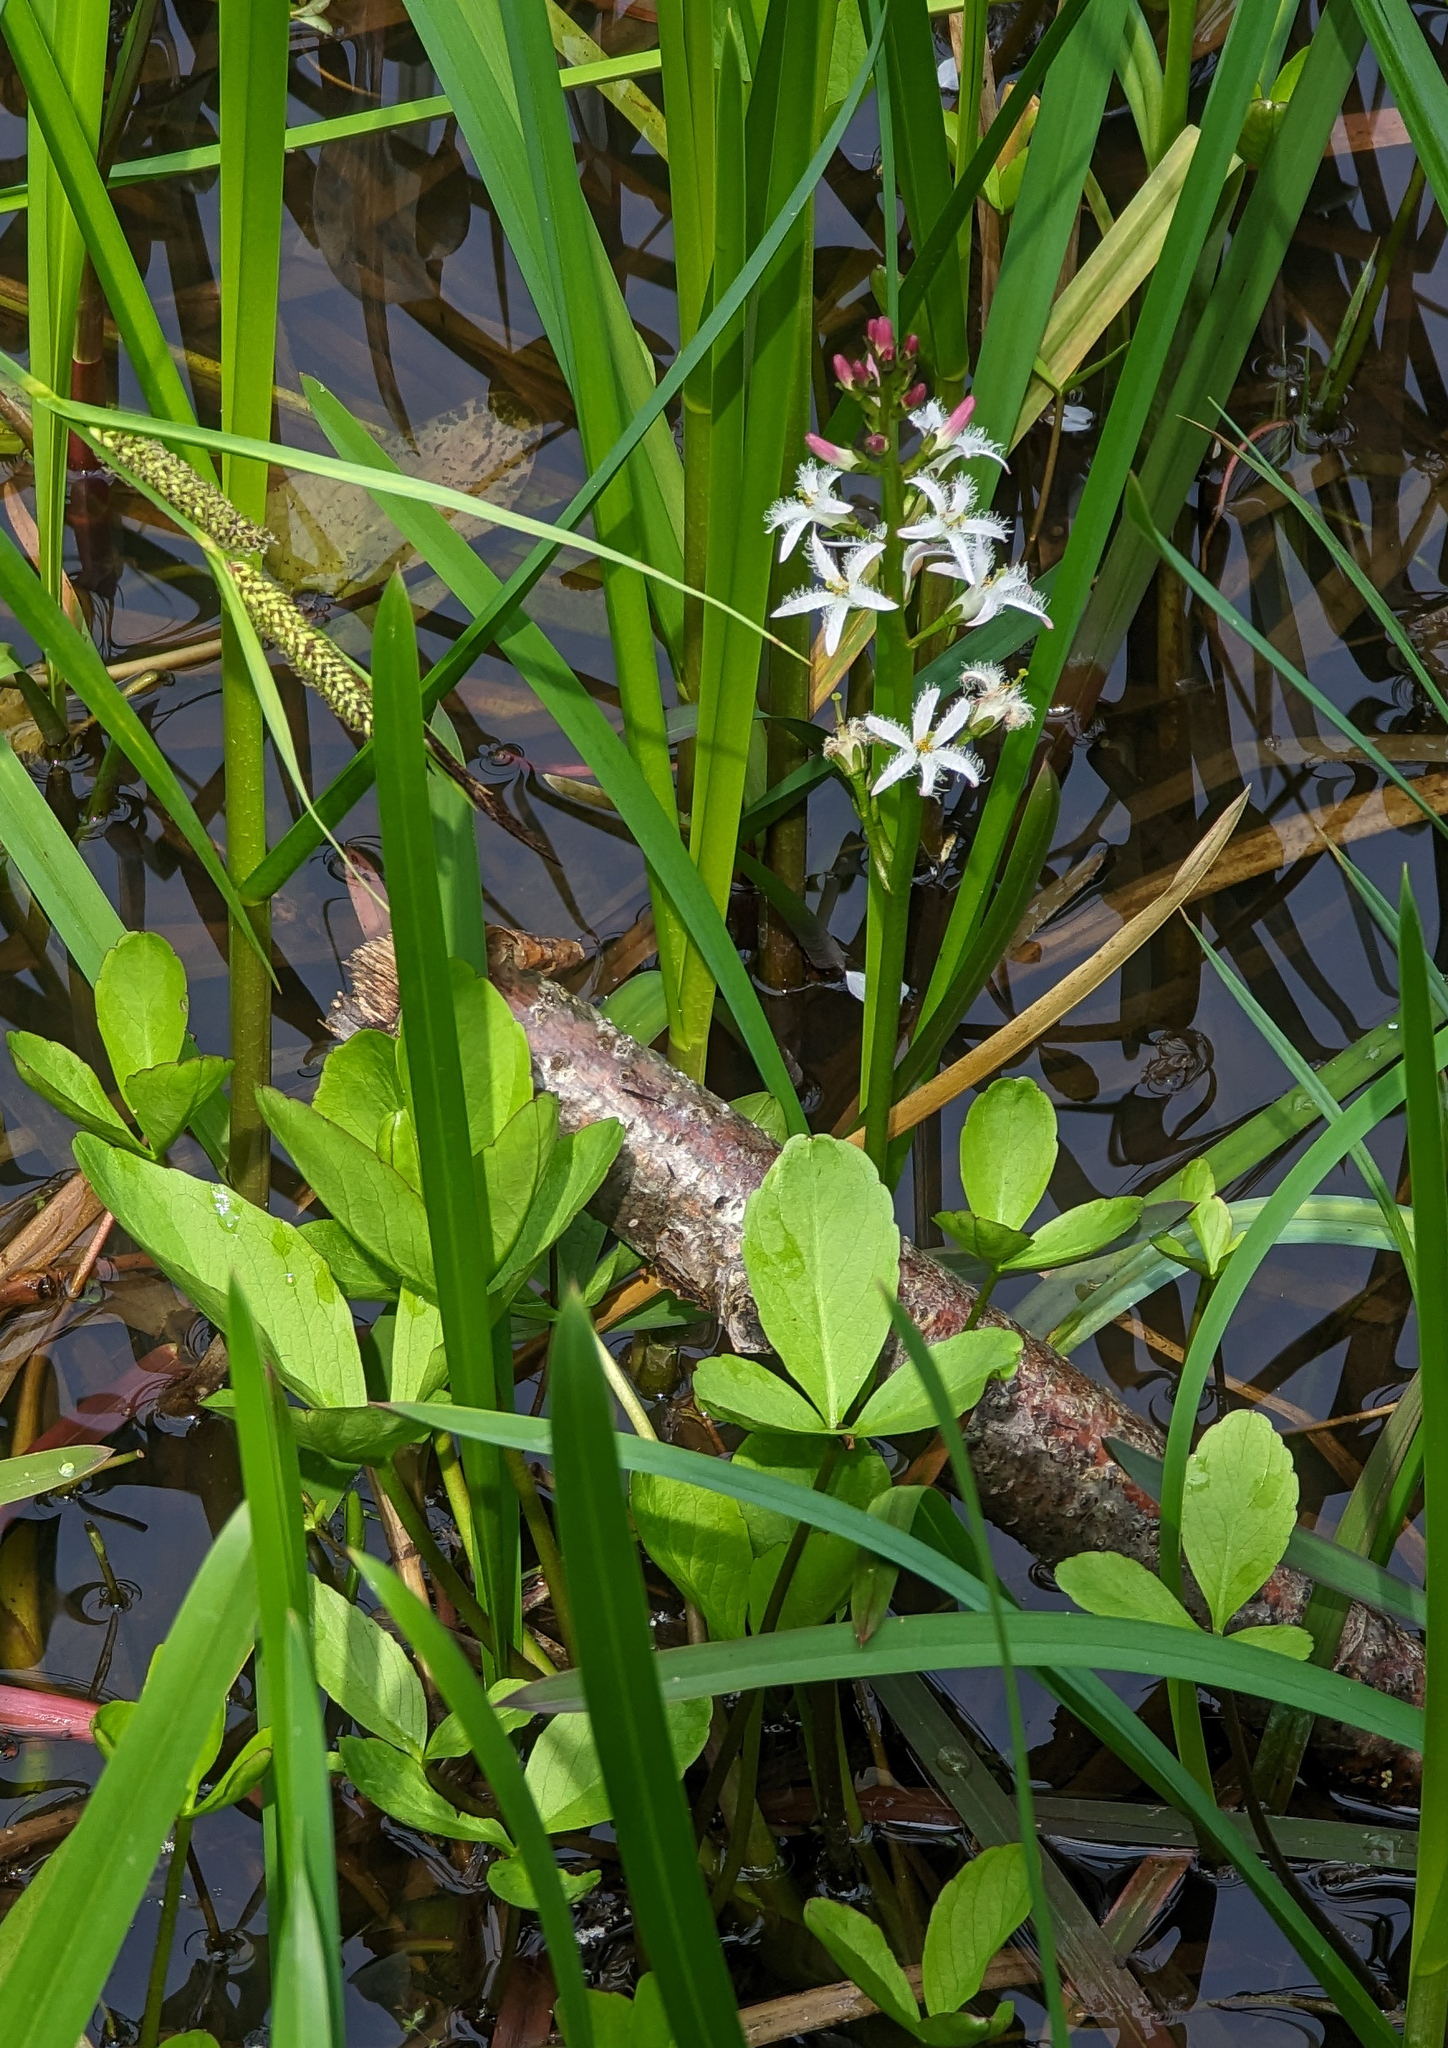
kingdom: Plantae
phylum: Tracheophyta
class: Magnoliopsida
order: Asterales
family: Menyanthaceae
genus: Menyanthes
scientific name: Menyanthes trifoliata
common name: Bogbean
